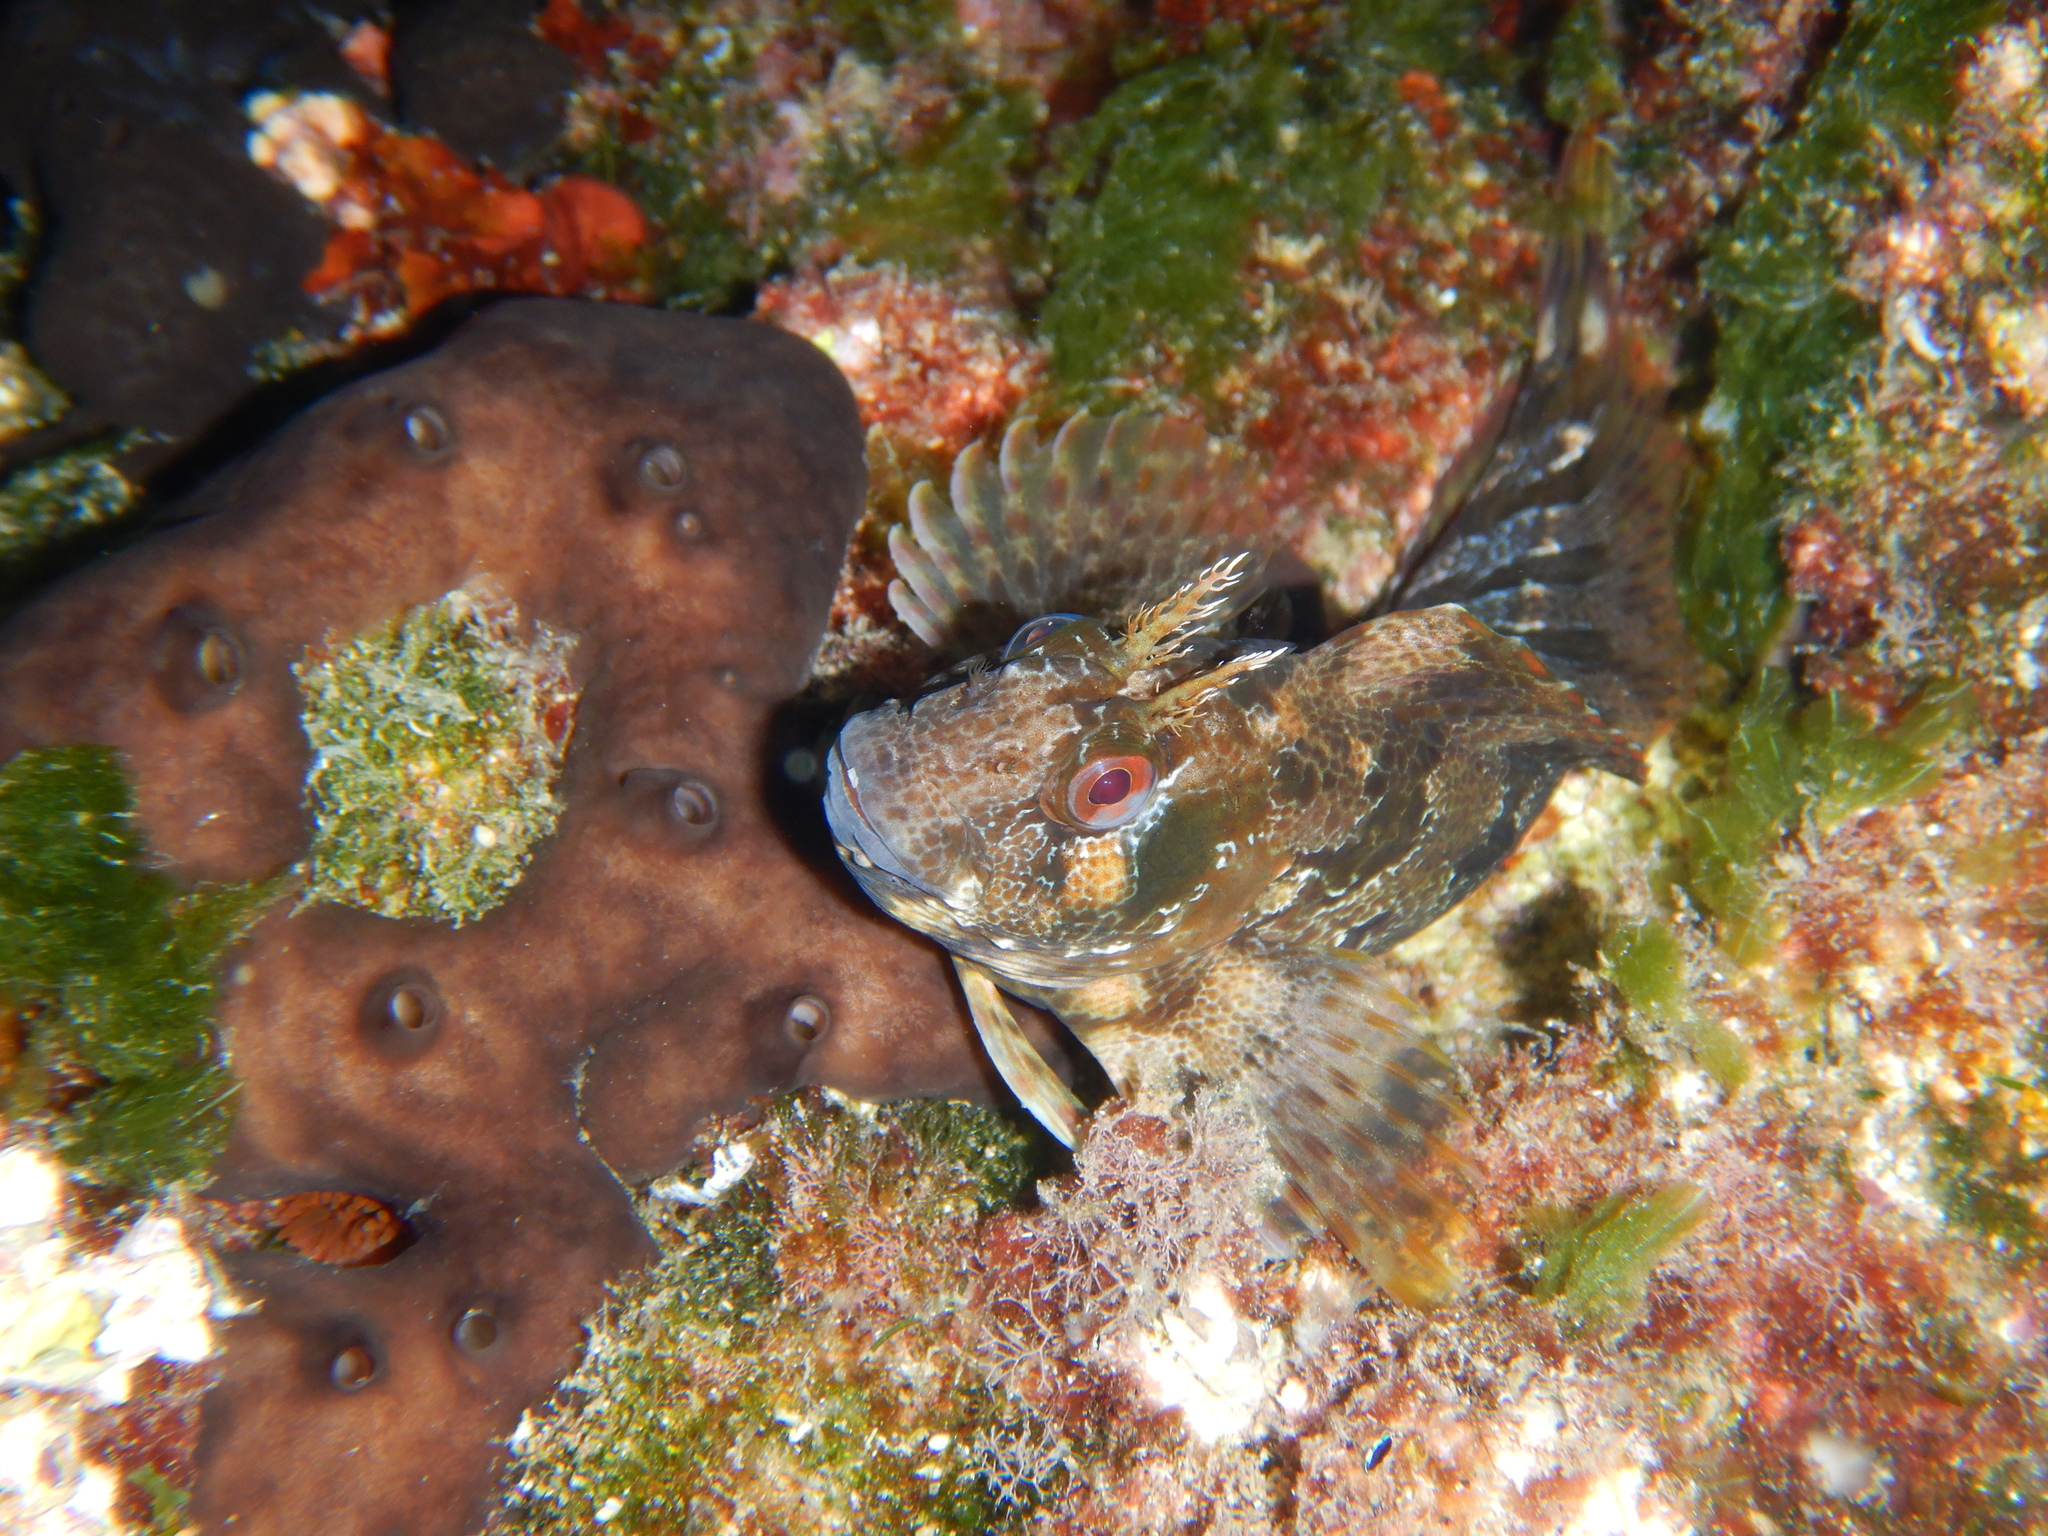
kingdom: Animalia
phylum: Chordata
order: Perciformes
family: Blenniidae
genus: Parablennius
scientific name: Parablennius gattorugine
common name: Tompot blenny
